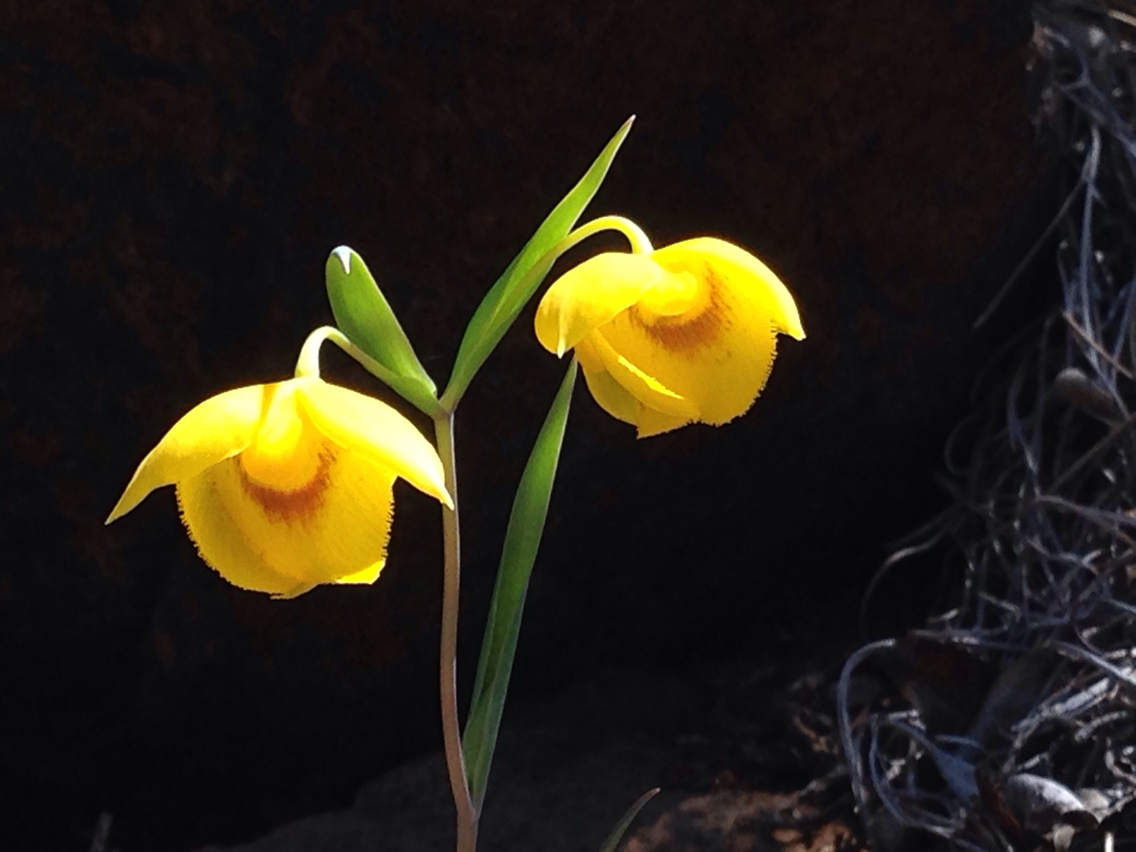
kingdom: Plantae
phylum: Tracheophyta
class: Liliopsida
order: Liliales
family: Liliaceae
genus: Calochortus
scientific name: Calochortus amabilis
